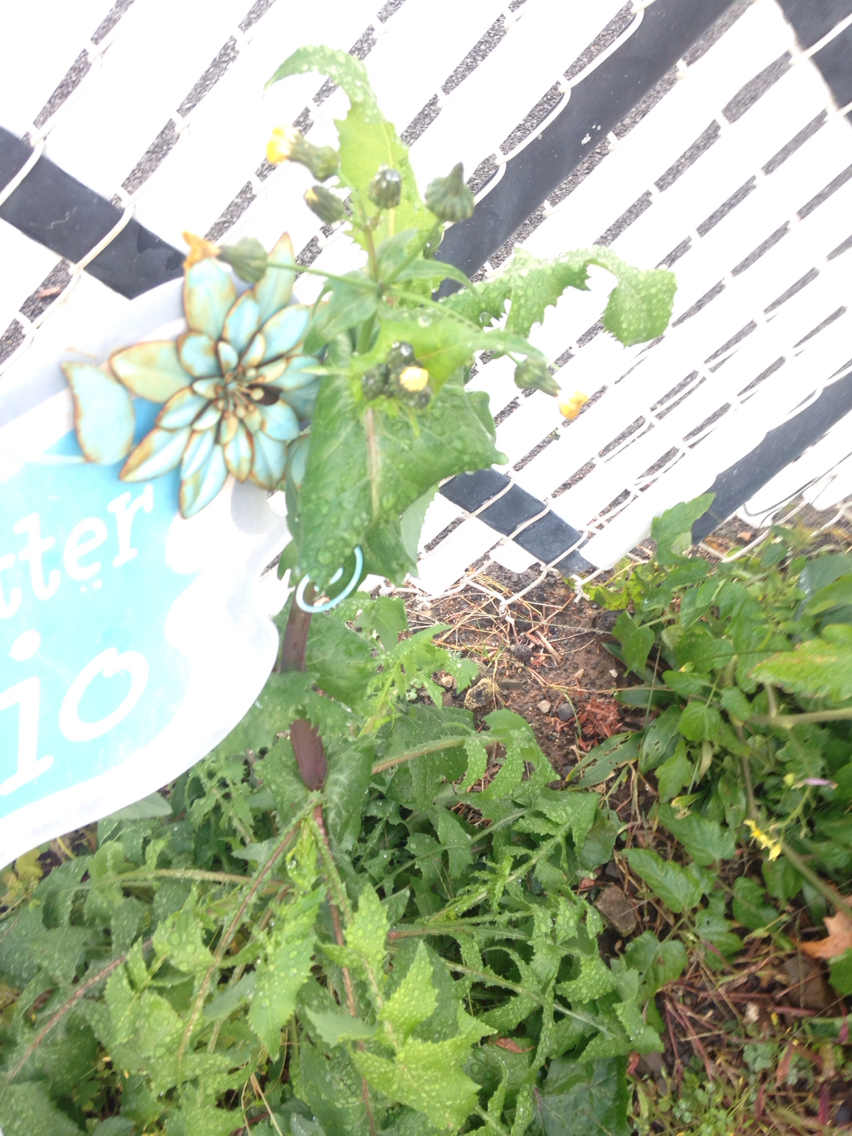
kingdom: Plantae
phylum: Tracheophyta
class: Magnoliopsida
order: Asterales
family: Asteraceae
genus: Sonchus
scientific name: Sonchus oleraceus
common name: Common sowthistle
